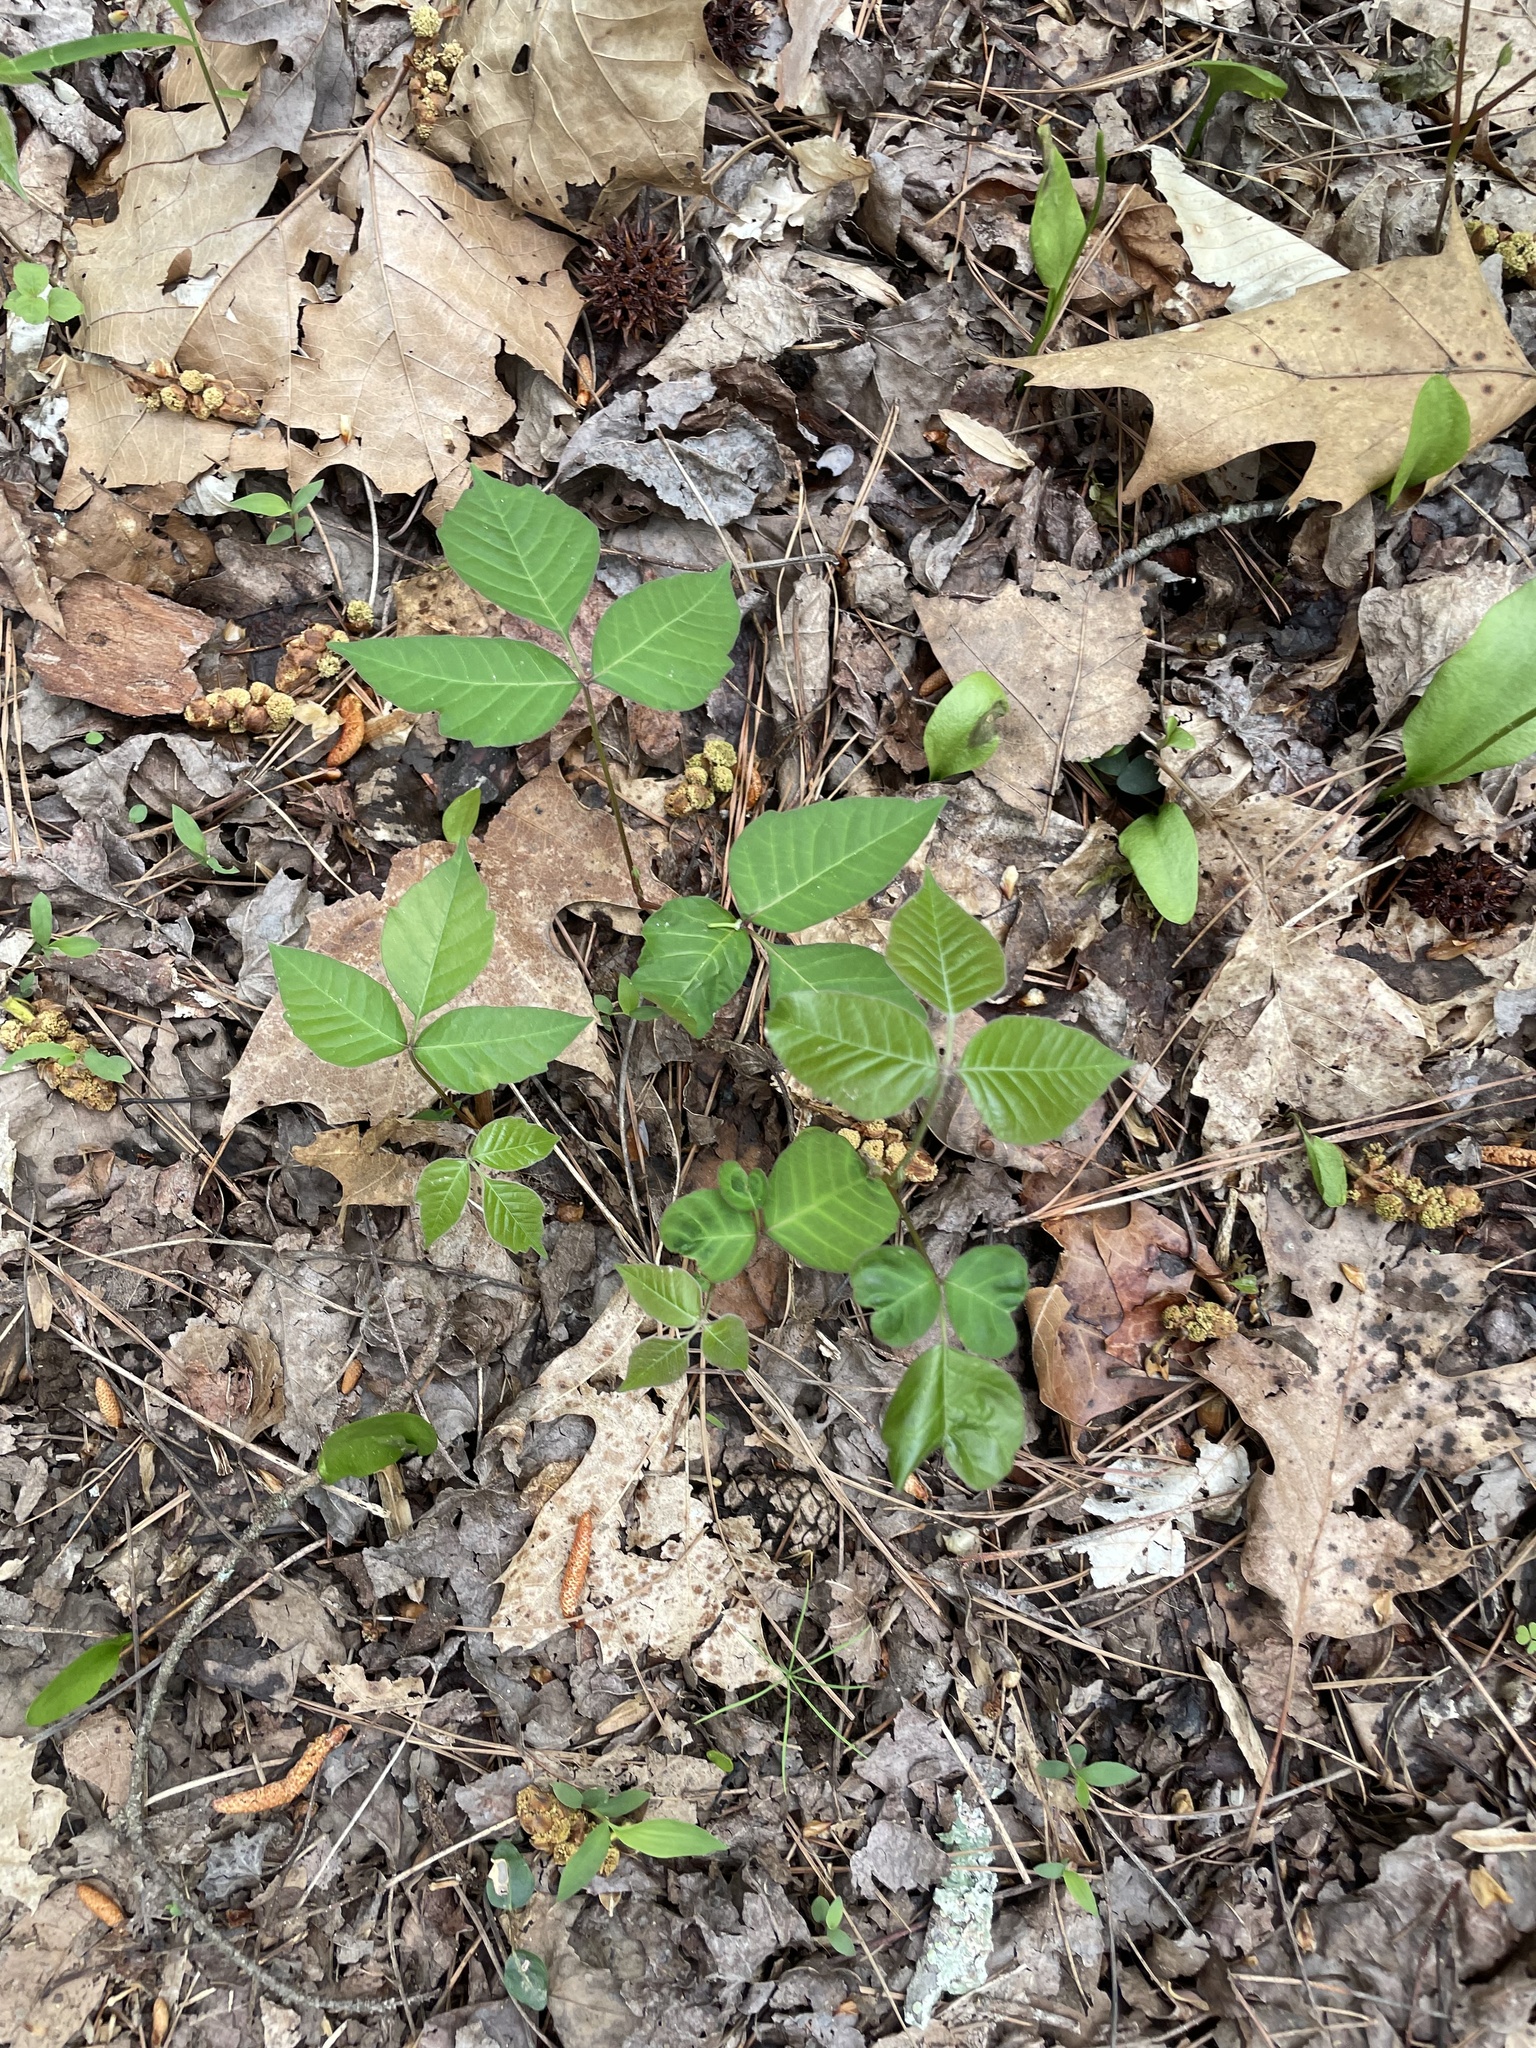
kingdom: Plantae
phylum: Tracheophyta
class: Magnoliopsida
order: Sapindales
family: Anacardiaceae
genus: Toxicodendron
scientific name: Toxicodendron radicans
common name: Poison ivy
